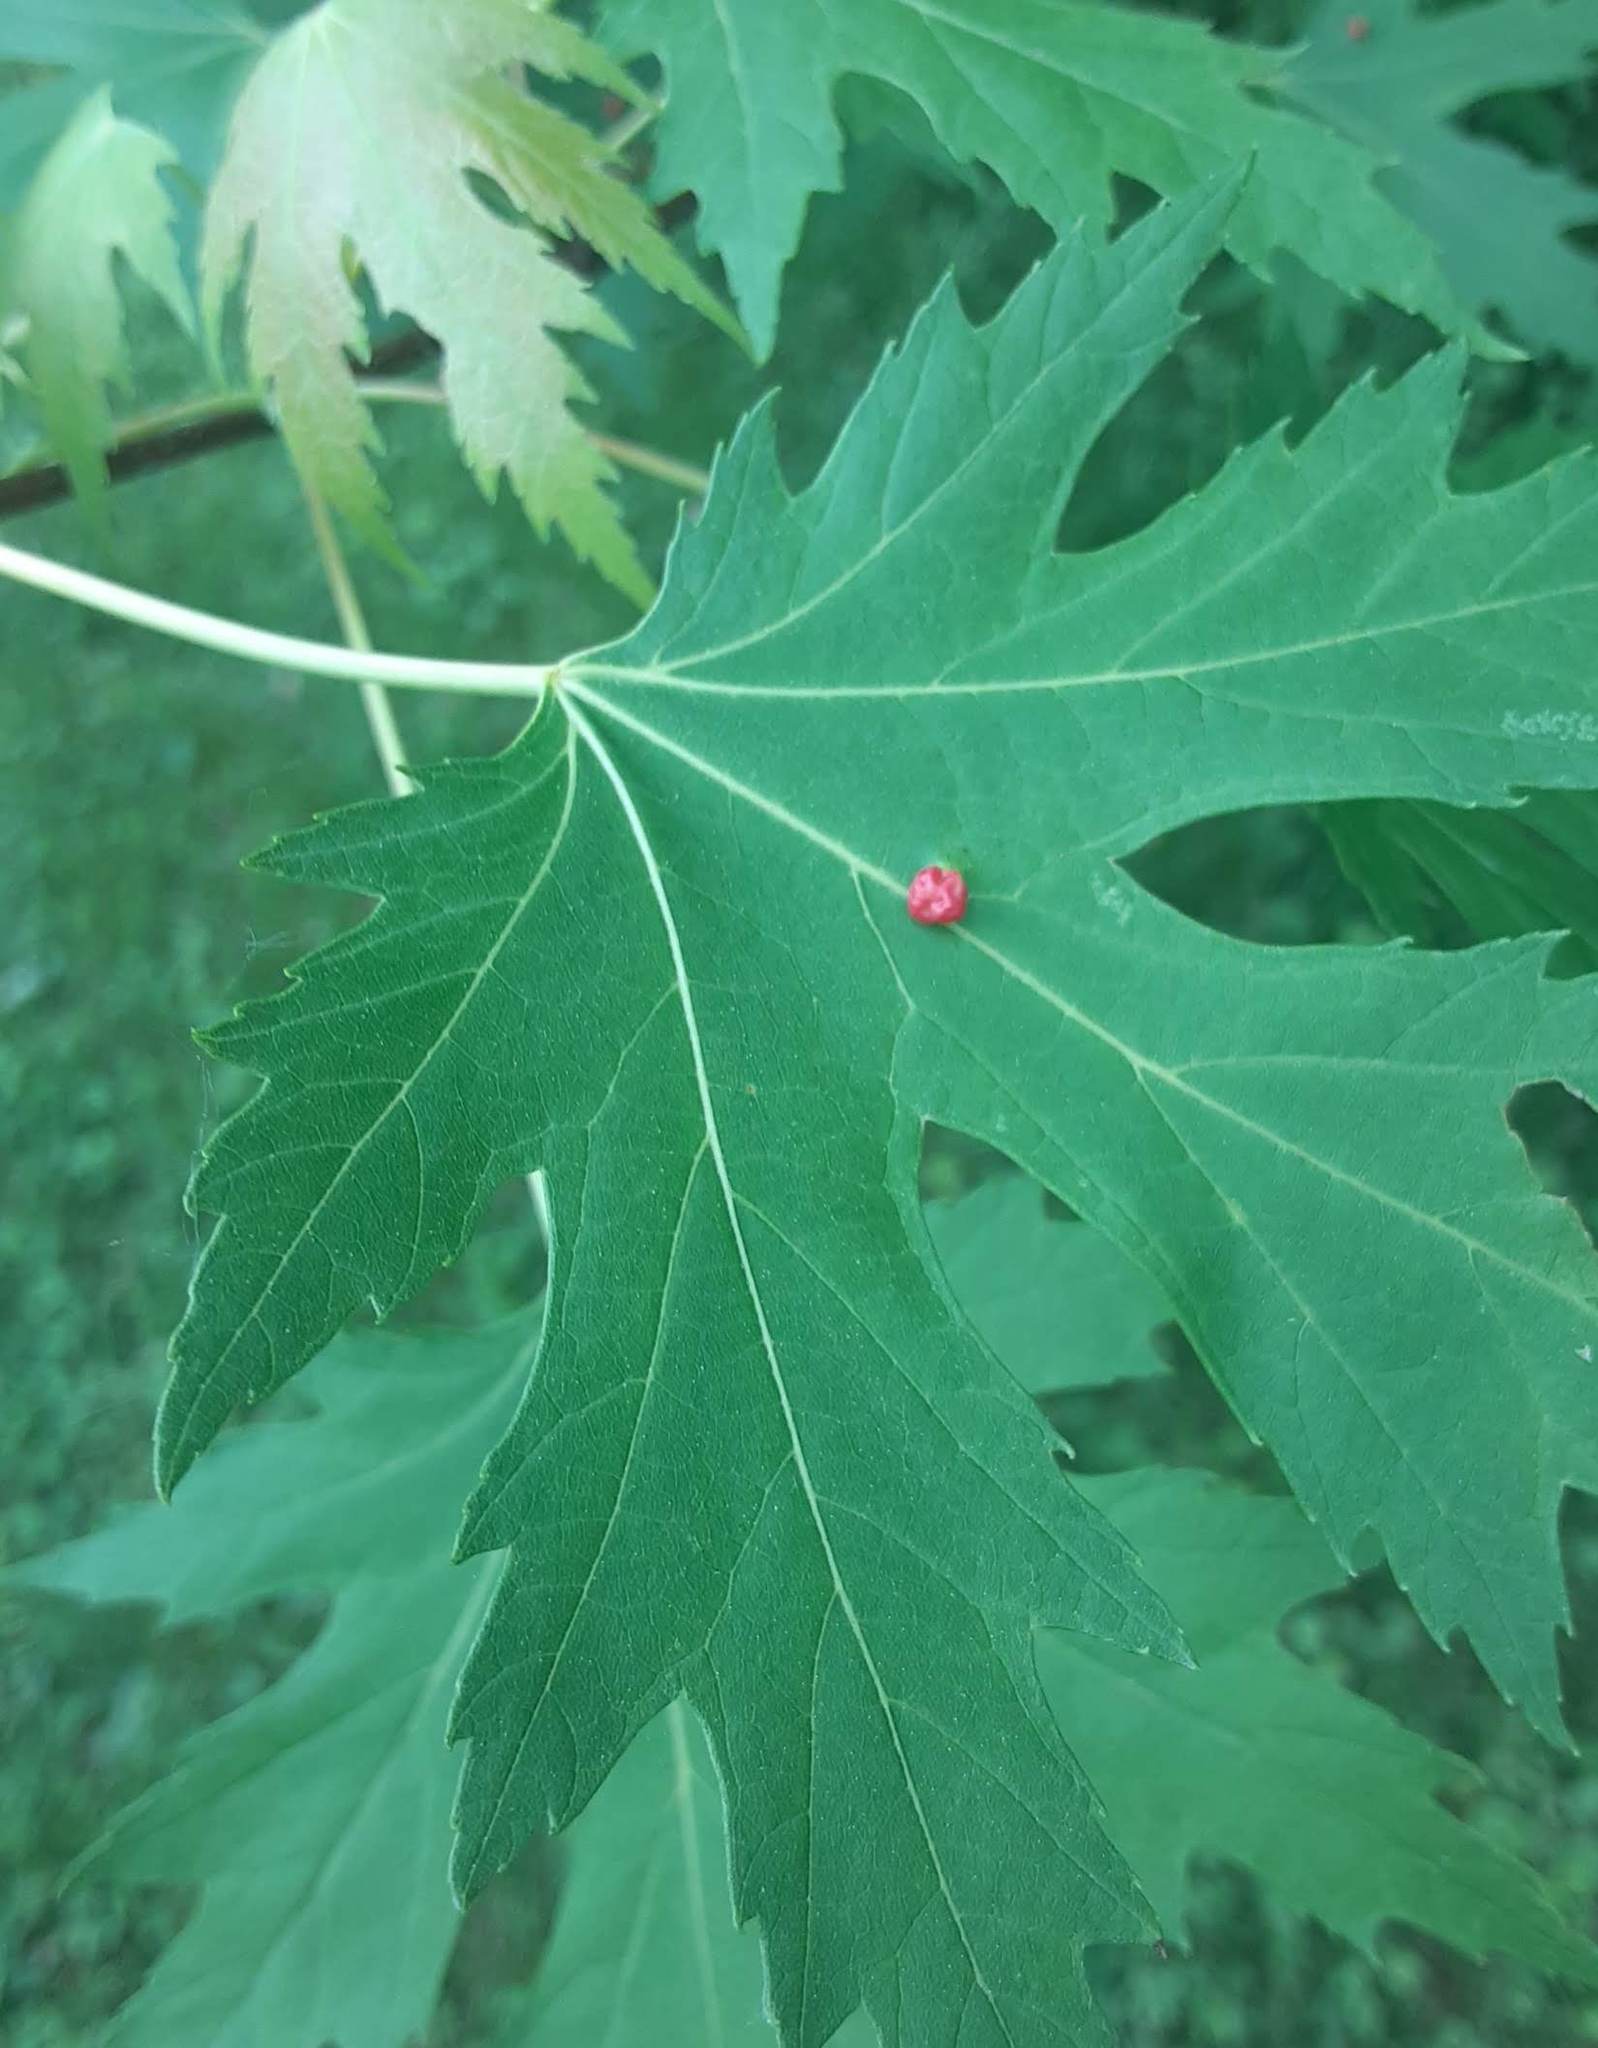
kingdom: Animalia
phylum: Arthropoda
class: Arachnida
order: Trombidiformes
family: Eriophyidae
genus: Vasates
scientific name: Vasates quadripedes
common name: Maple bladder gall mite
